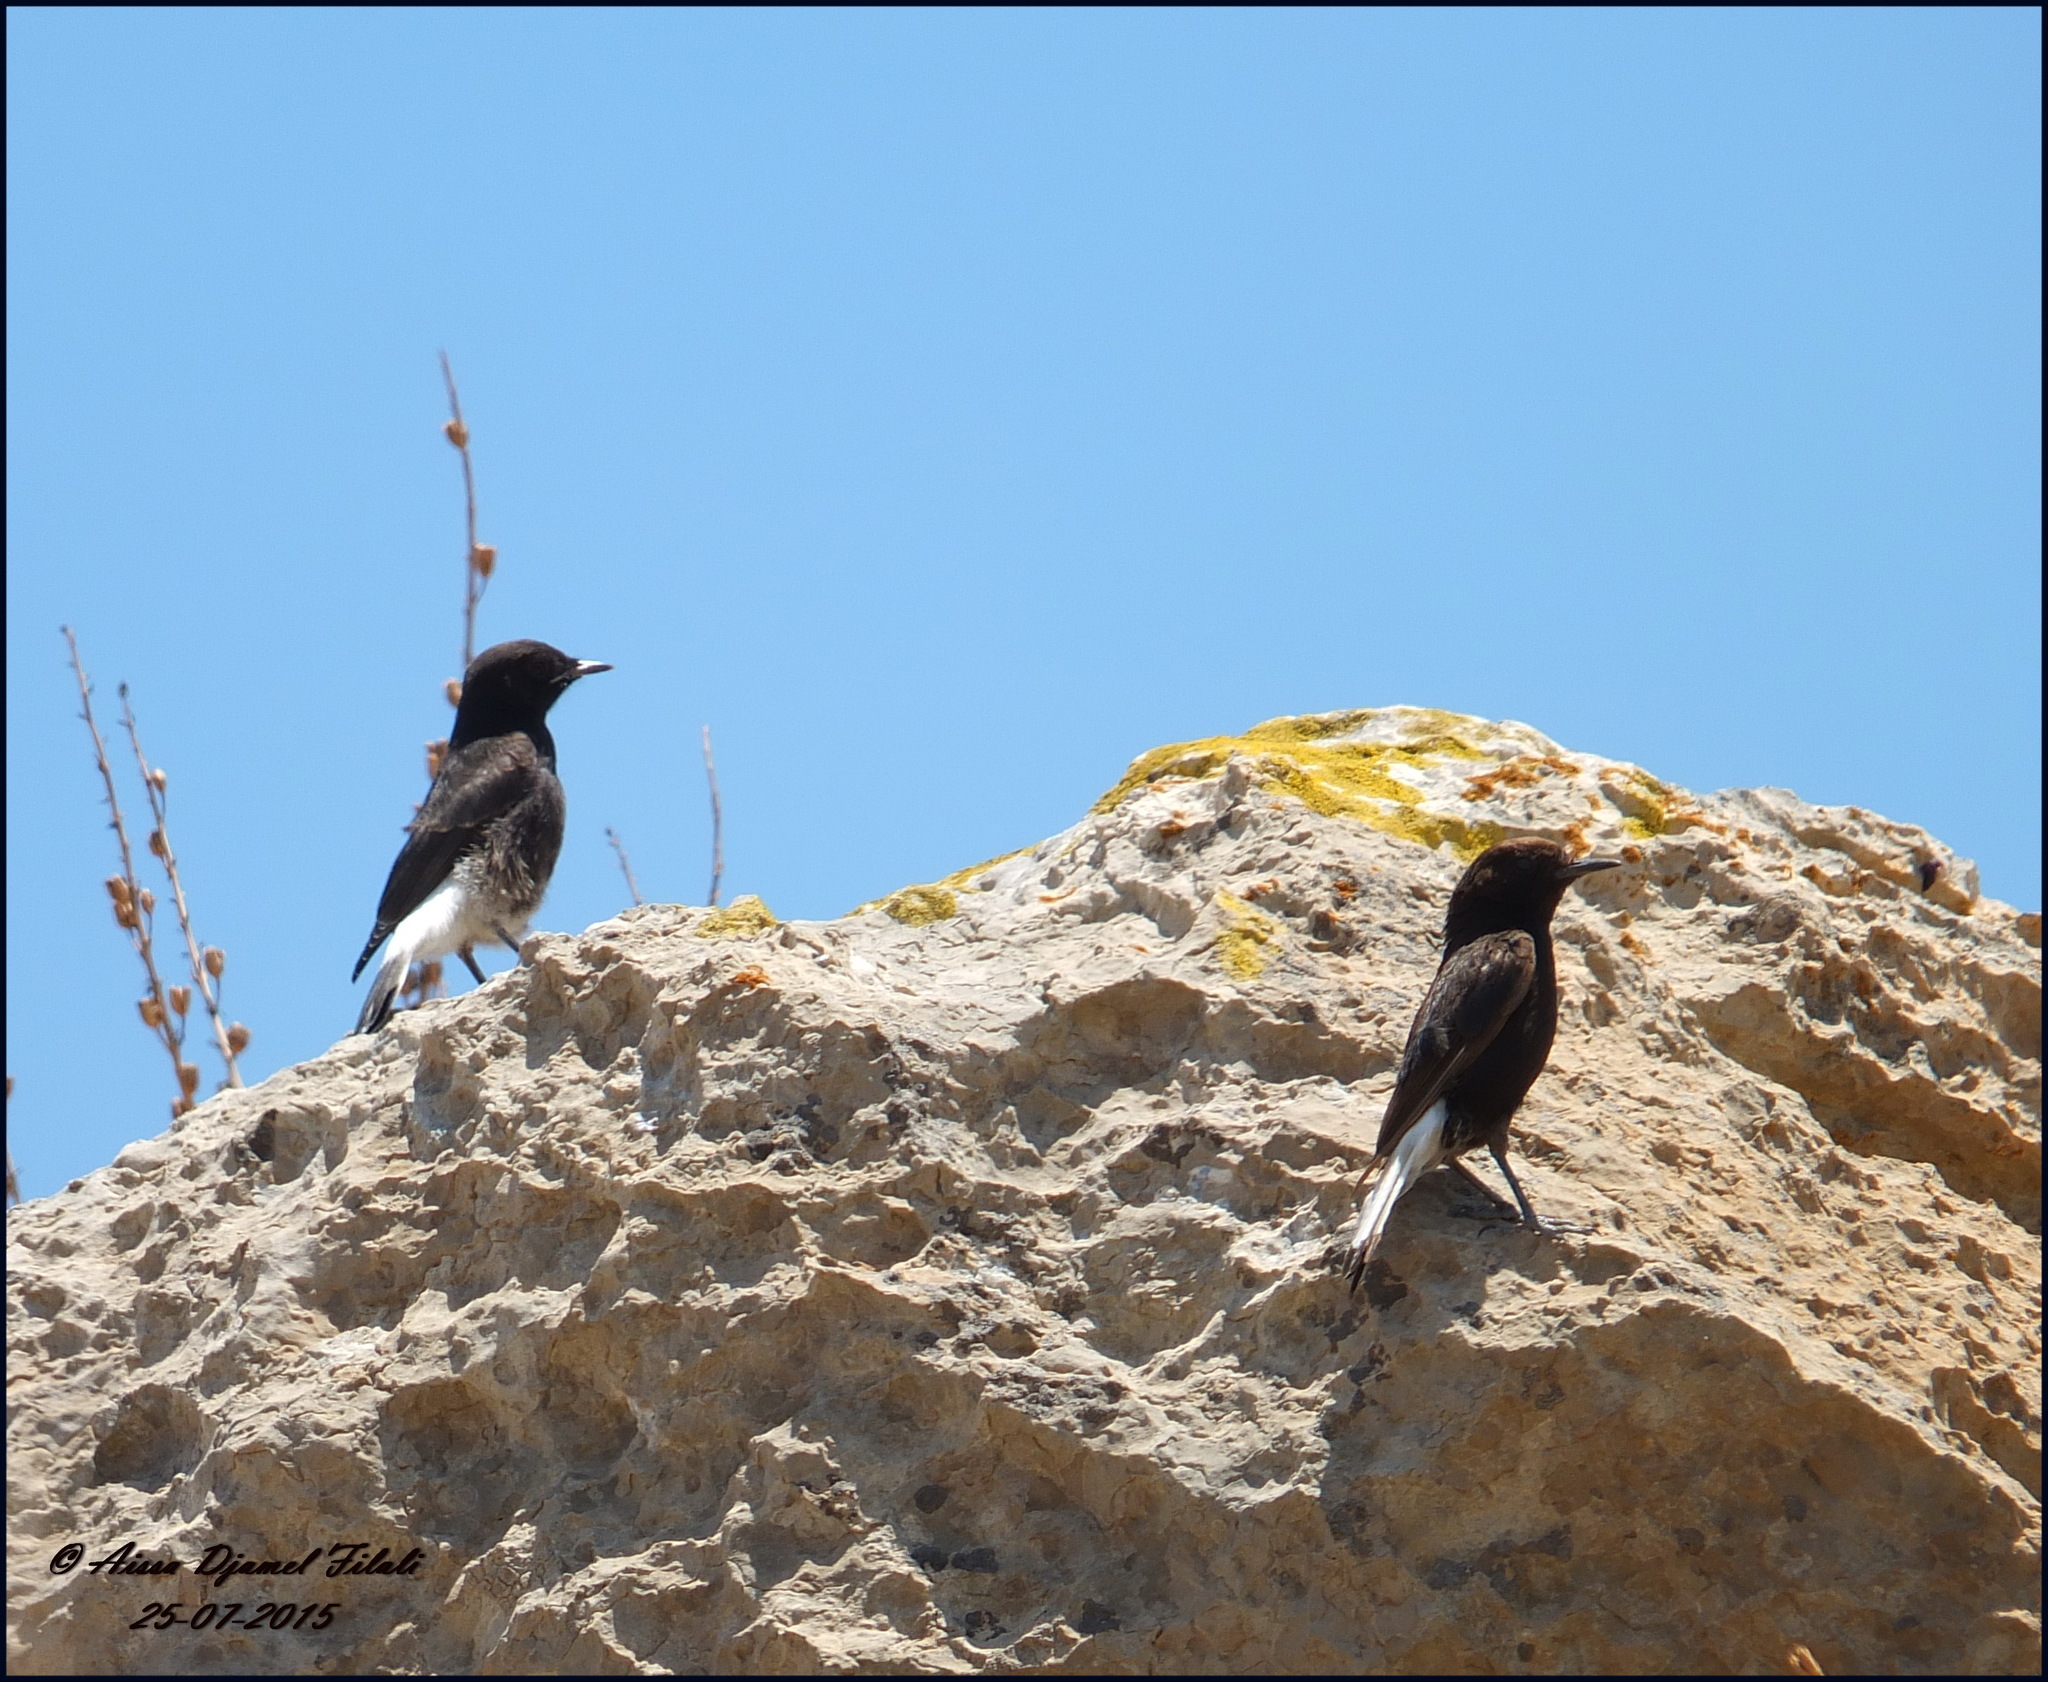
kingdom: Animalia
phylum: Chordata
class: Aves
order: Passeriformes
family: Muscicapidae
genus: Oenanthe
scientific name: Oenanthe leucura
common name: Black wheatear
